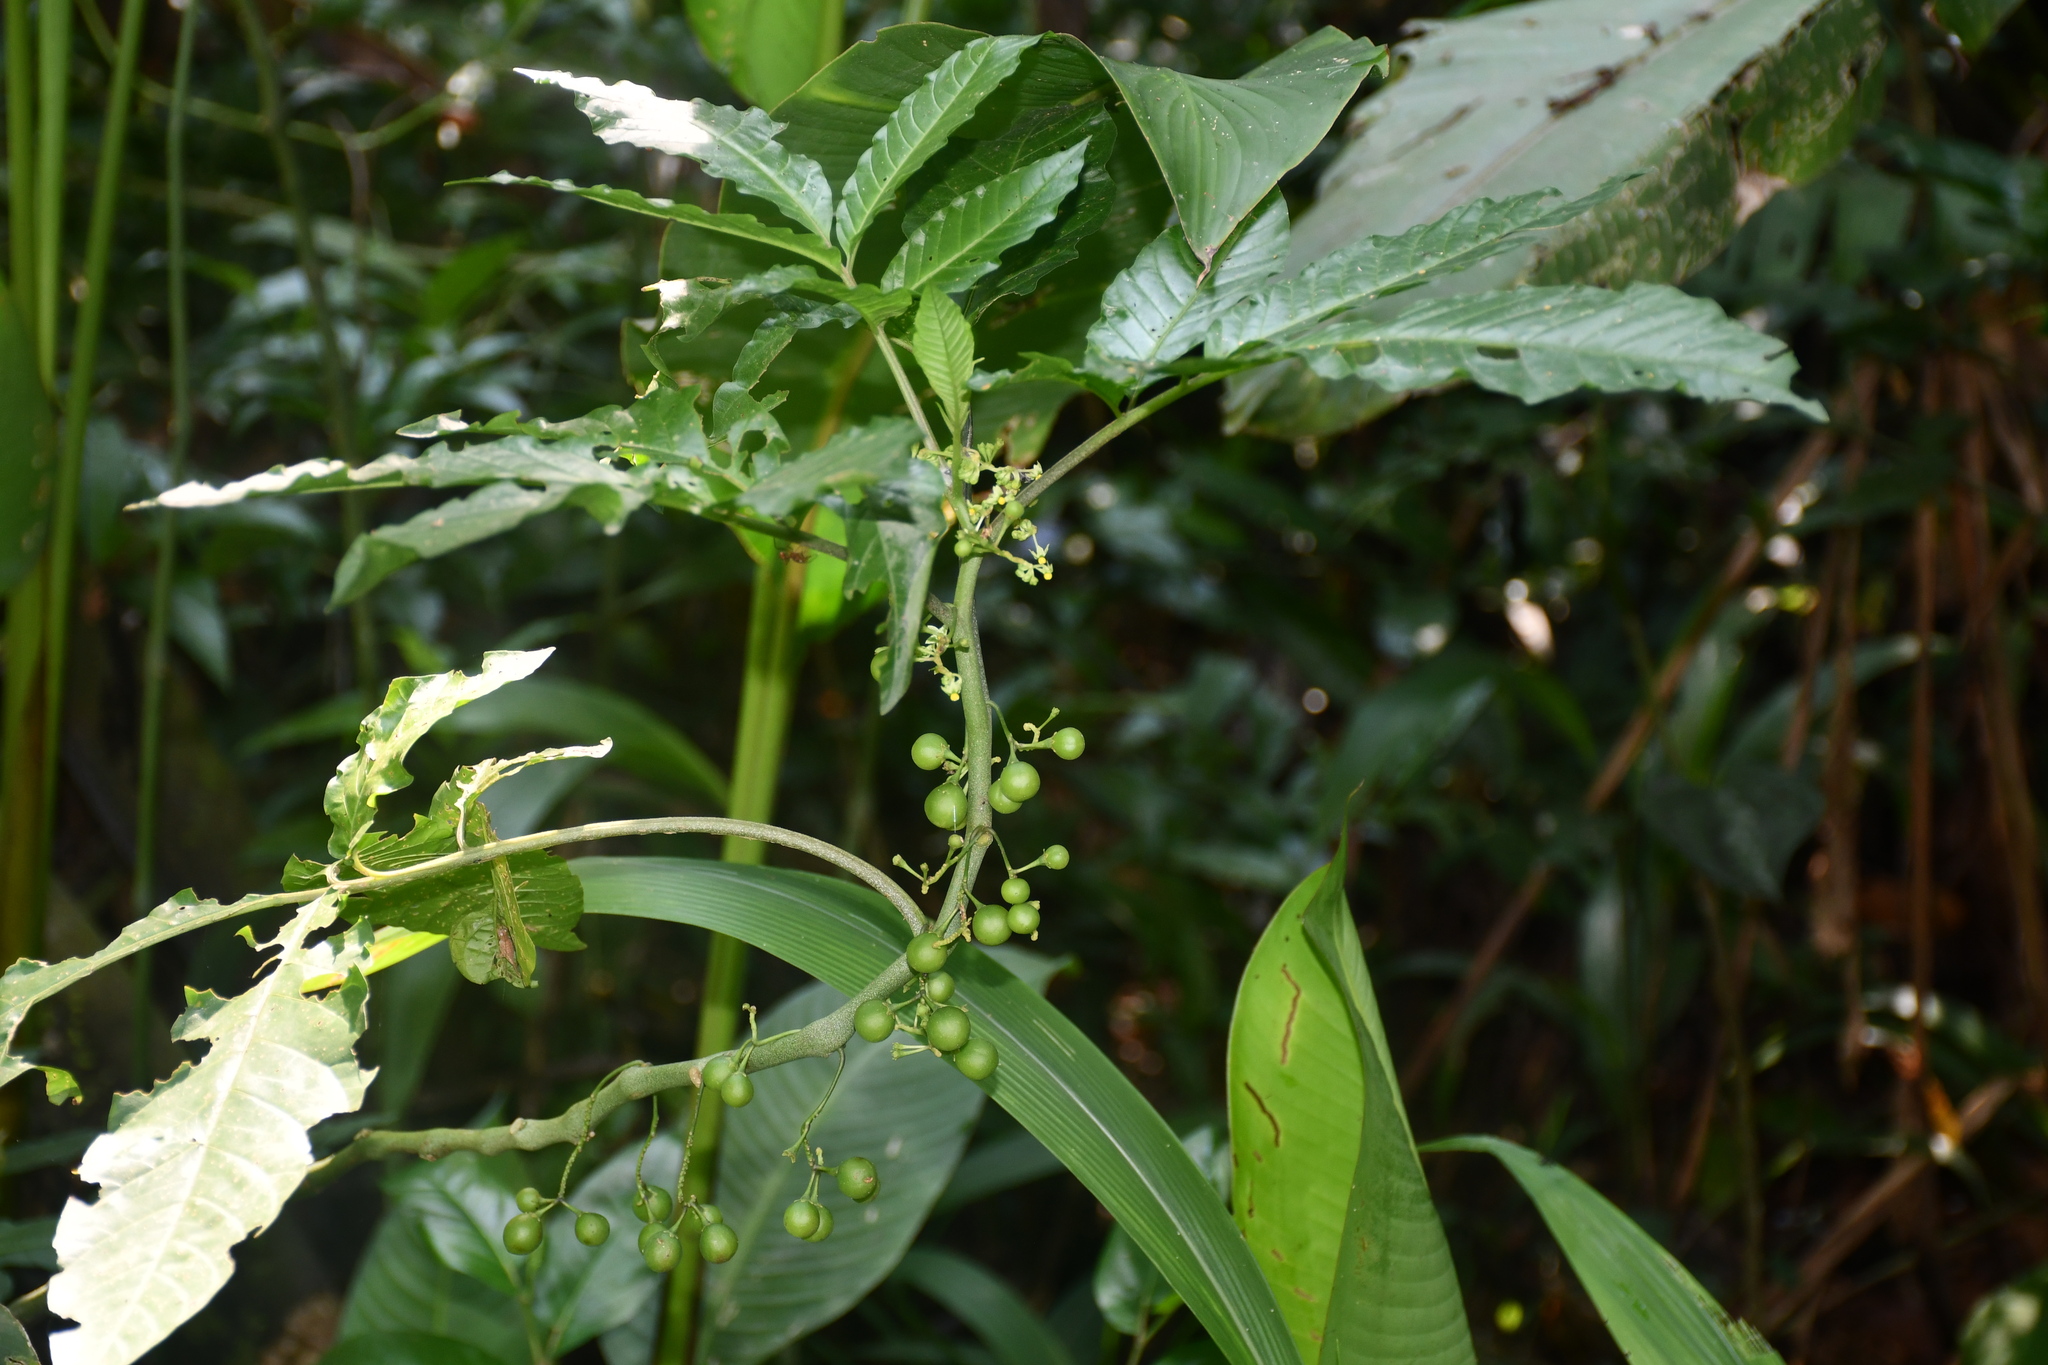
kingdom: Plantae
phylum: Tracheophyta
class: Magnoliopsida
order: Solanales
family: Solanaceae
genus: Solanum
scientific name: Solanum mite
